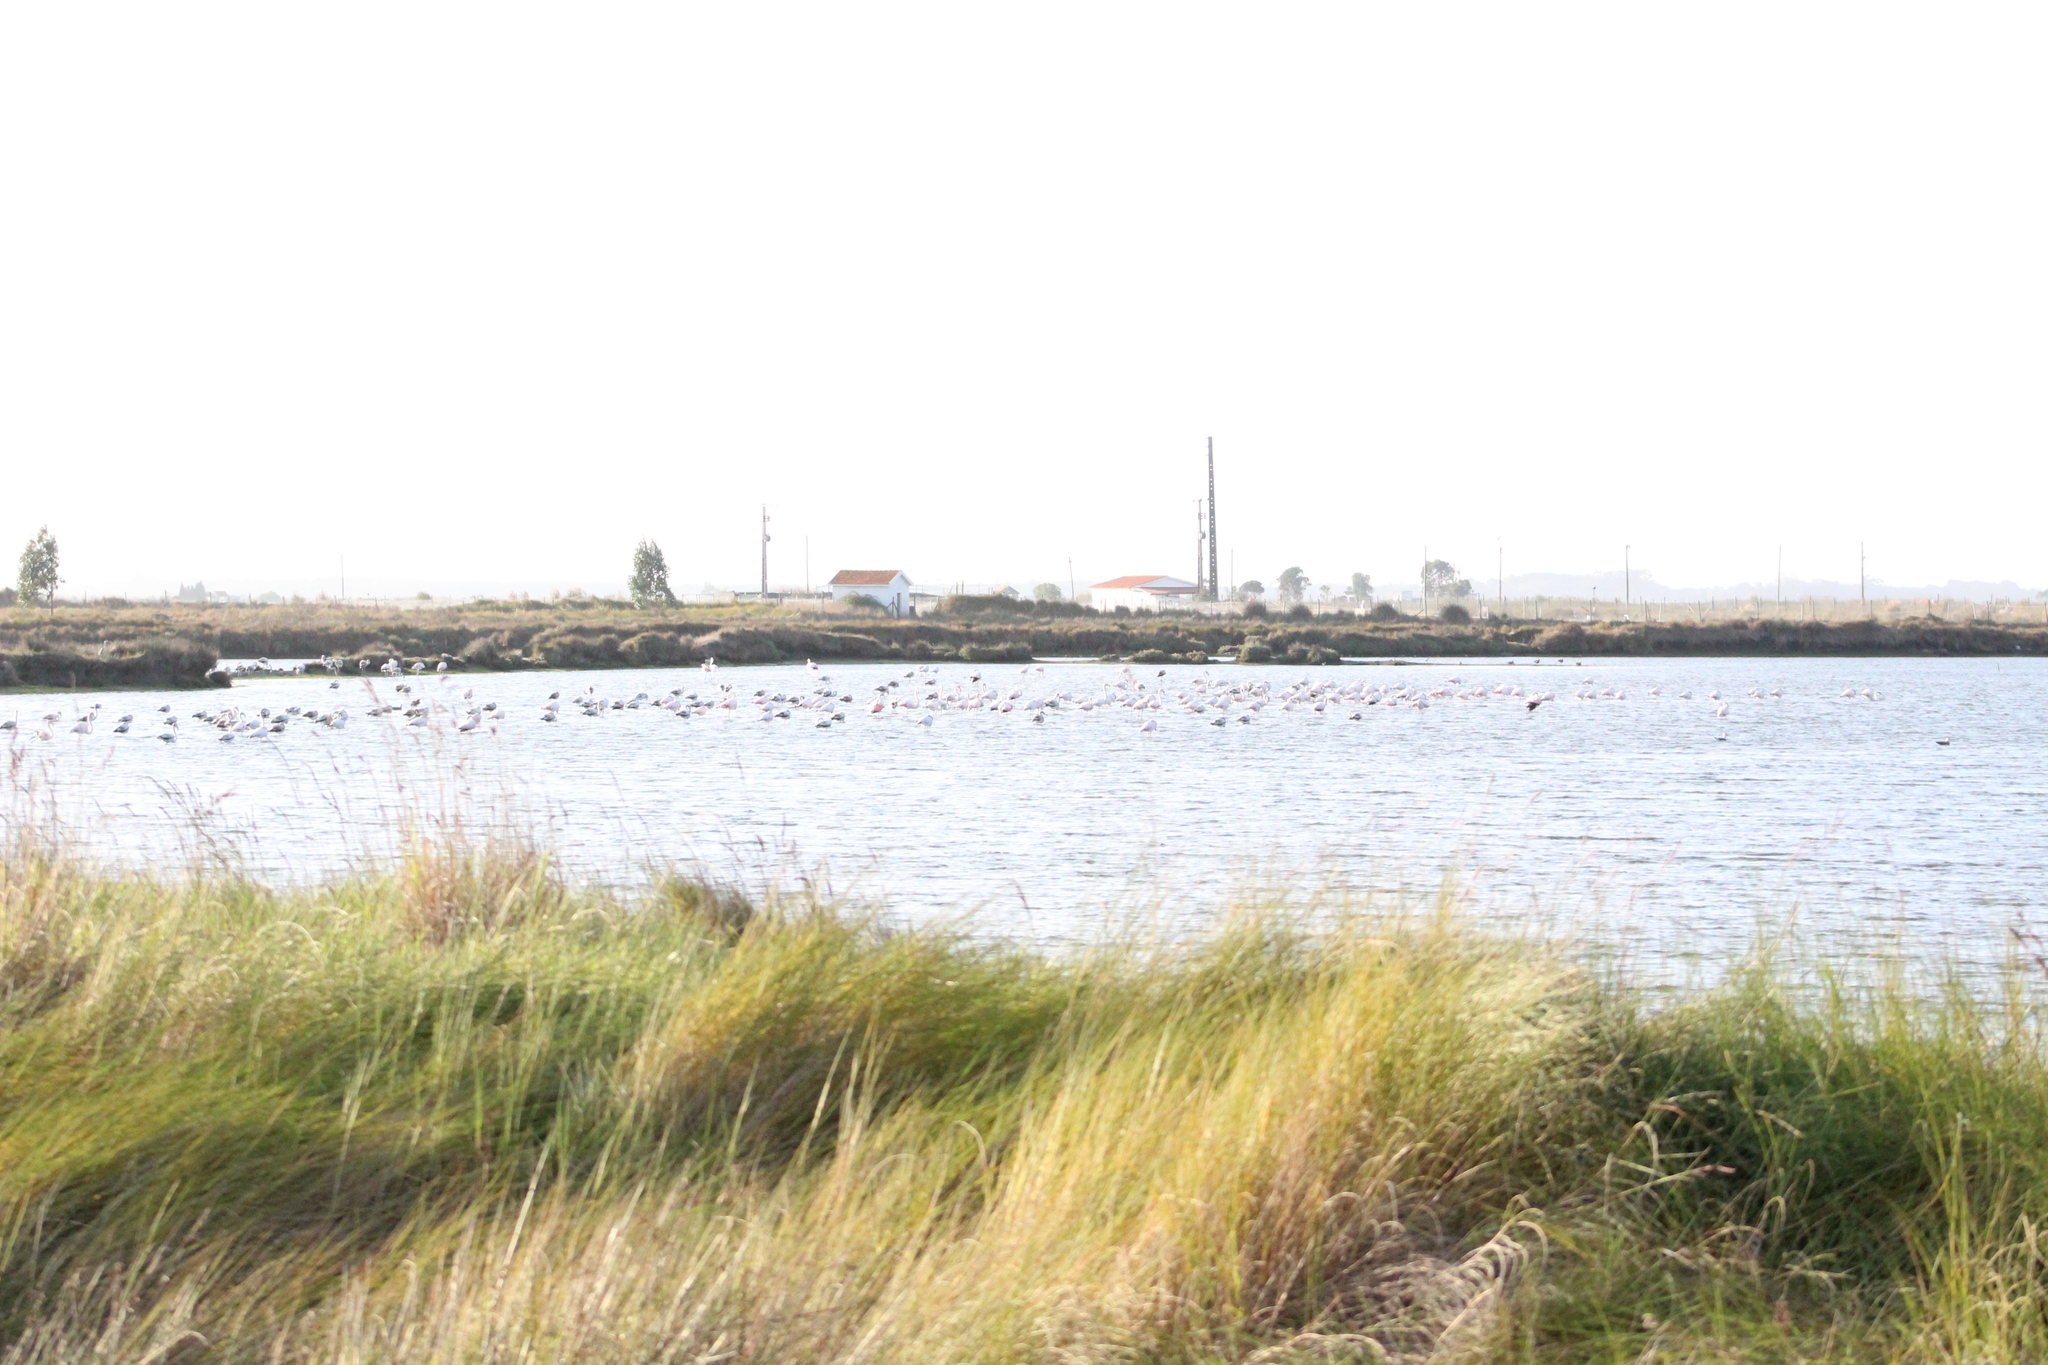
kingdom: Animalia
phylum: Chordata
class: Aves
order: Phoenicopteriformes
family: Phoenicopteridae
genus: Phoenicopterus
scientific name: Phoenicopterus roseus
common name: Greater flamingo
